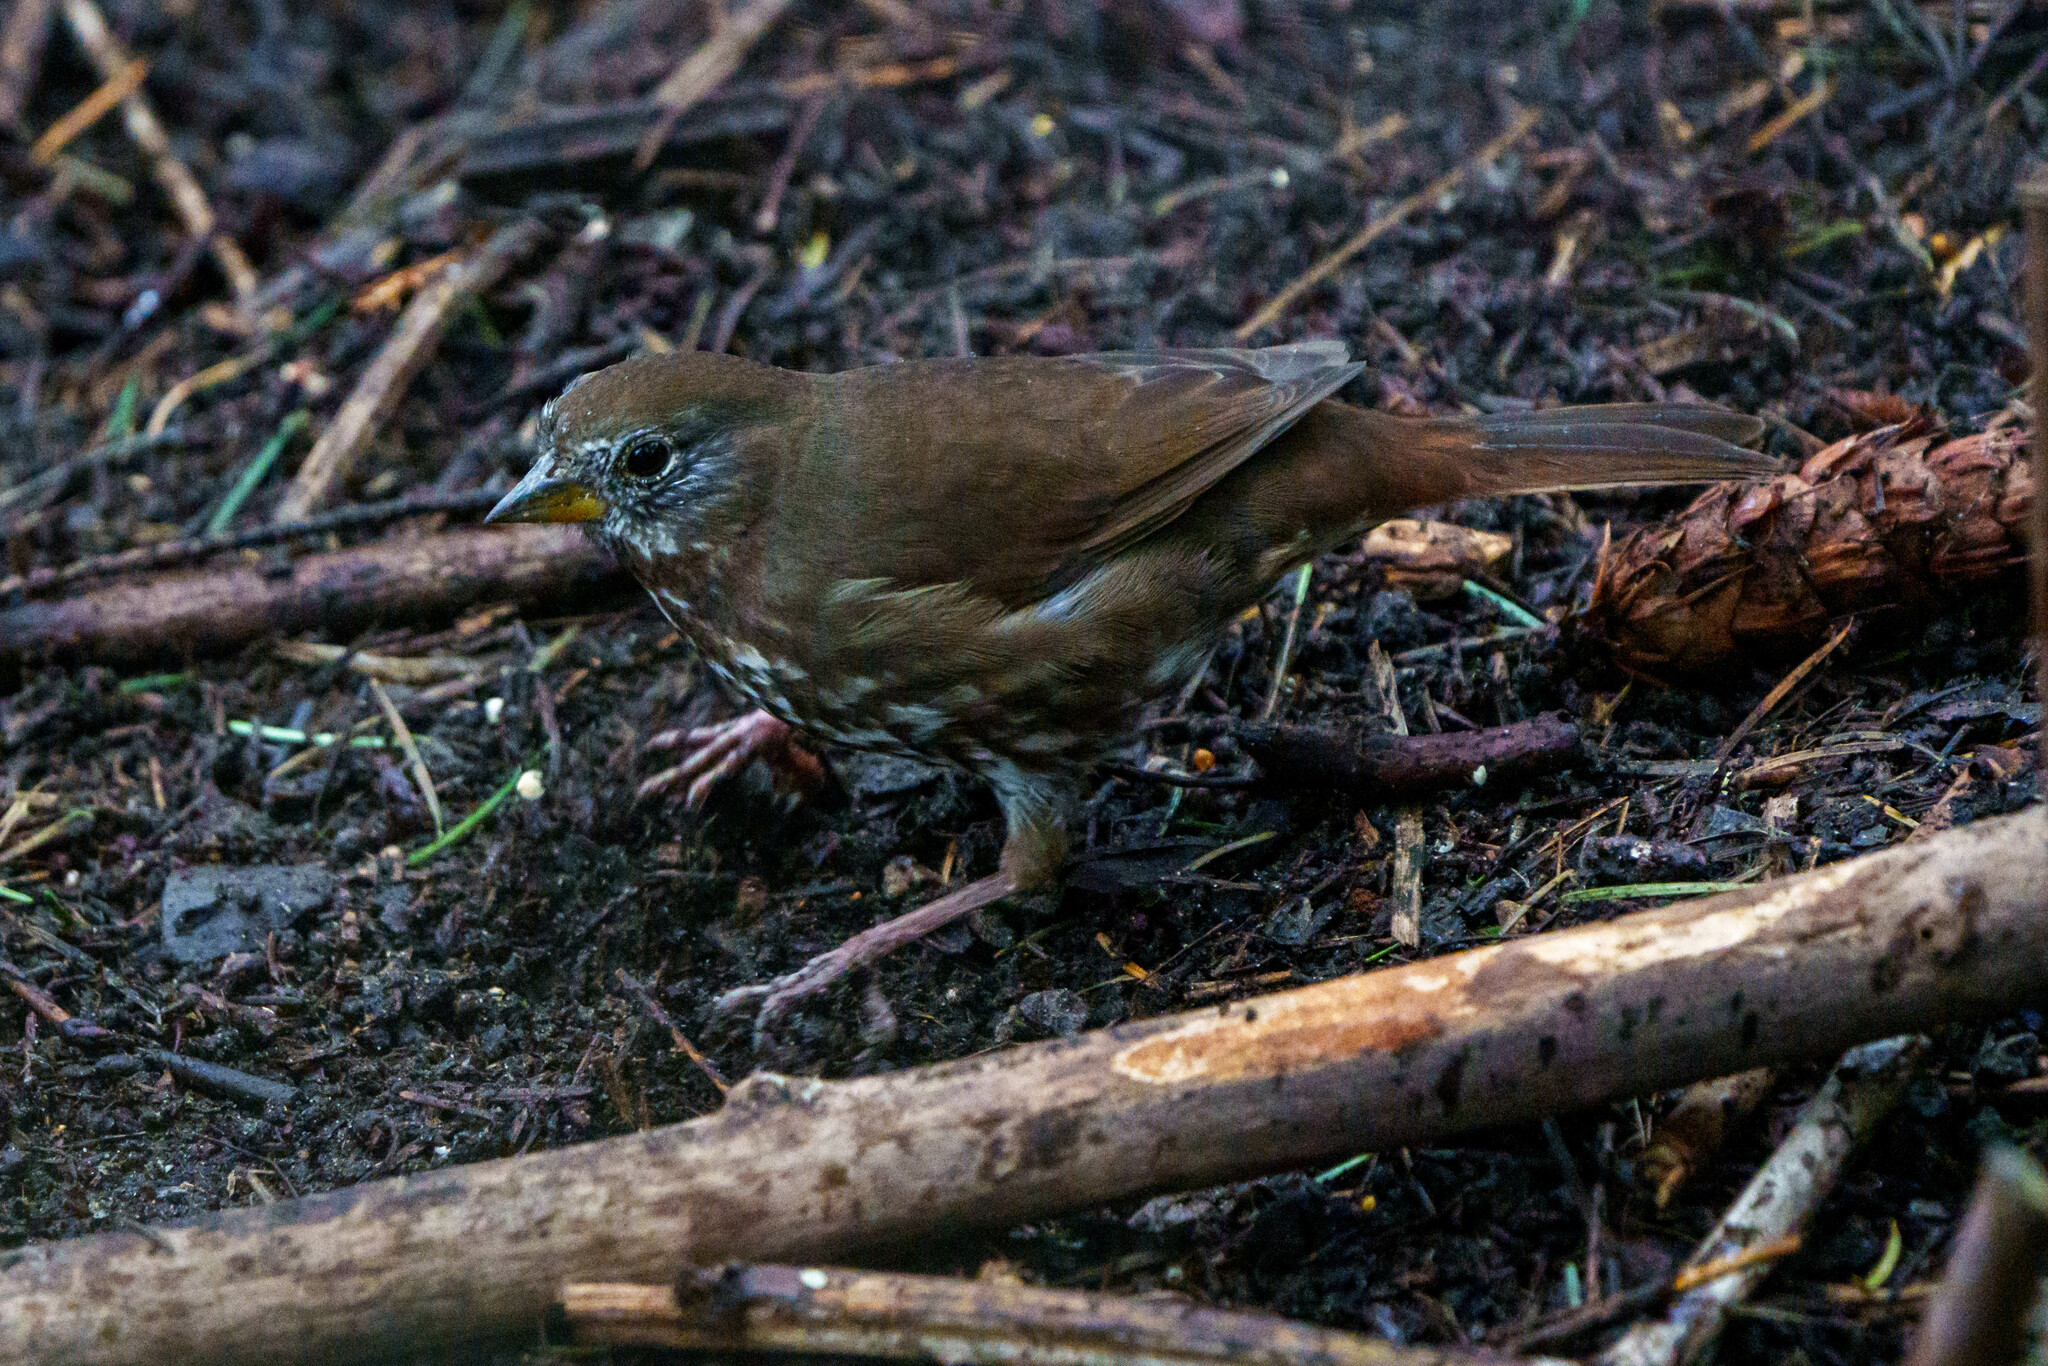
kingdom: Animalia
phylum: Chordata
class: Aves
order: Passeriformes
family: Passerellidae
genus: Passerella
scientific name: Passerella iliaca
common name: Fox sparrow
